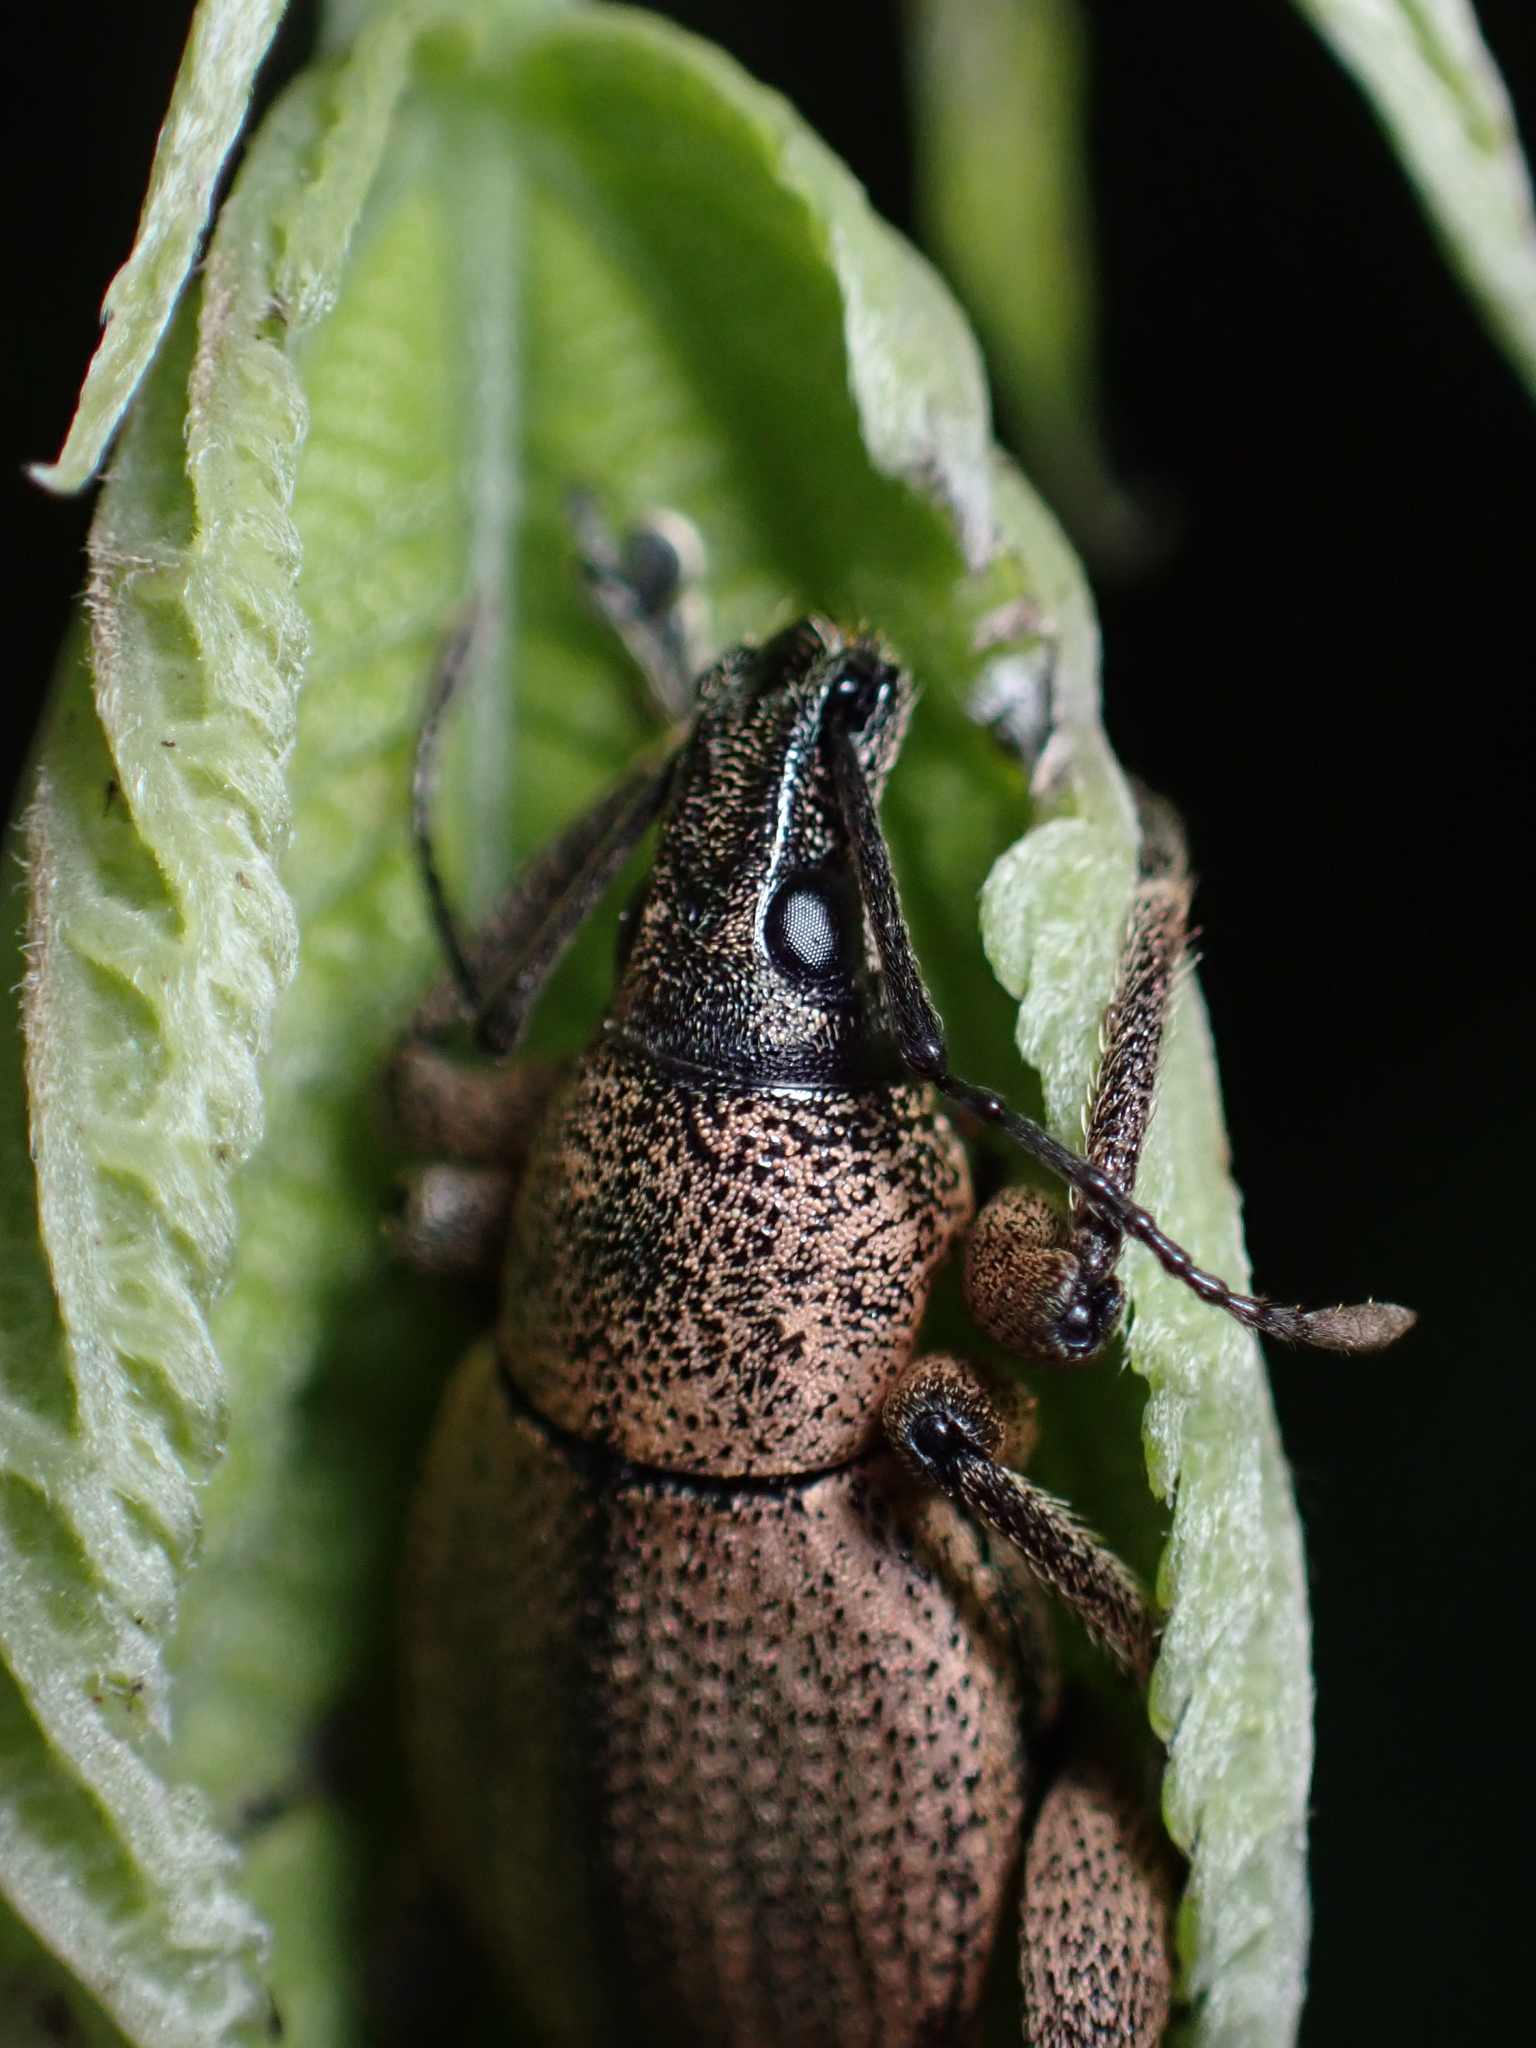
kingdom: Animalia
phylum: Arthropoda
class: Insecta
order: Coleoptera
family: Curculionidae
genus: Elytrurus
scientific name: Elytrurus serrulatus
